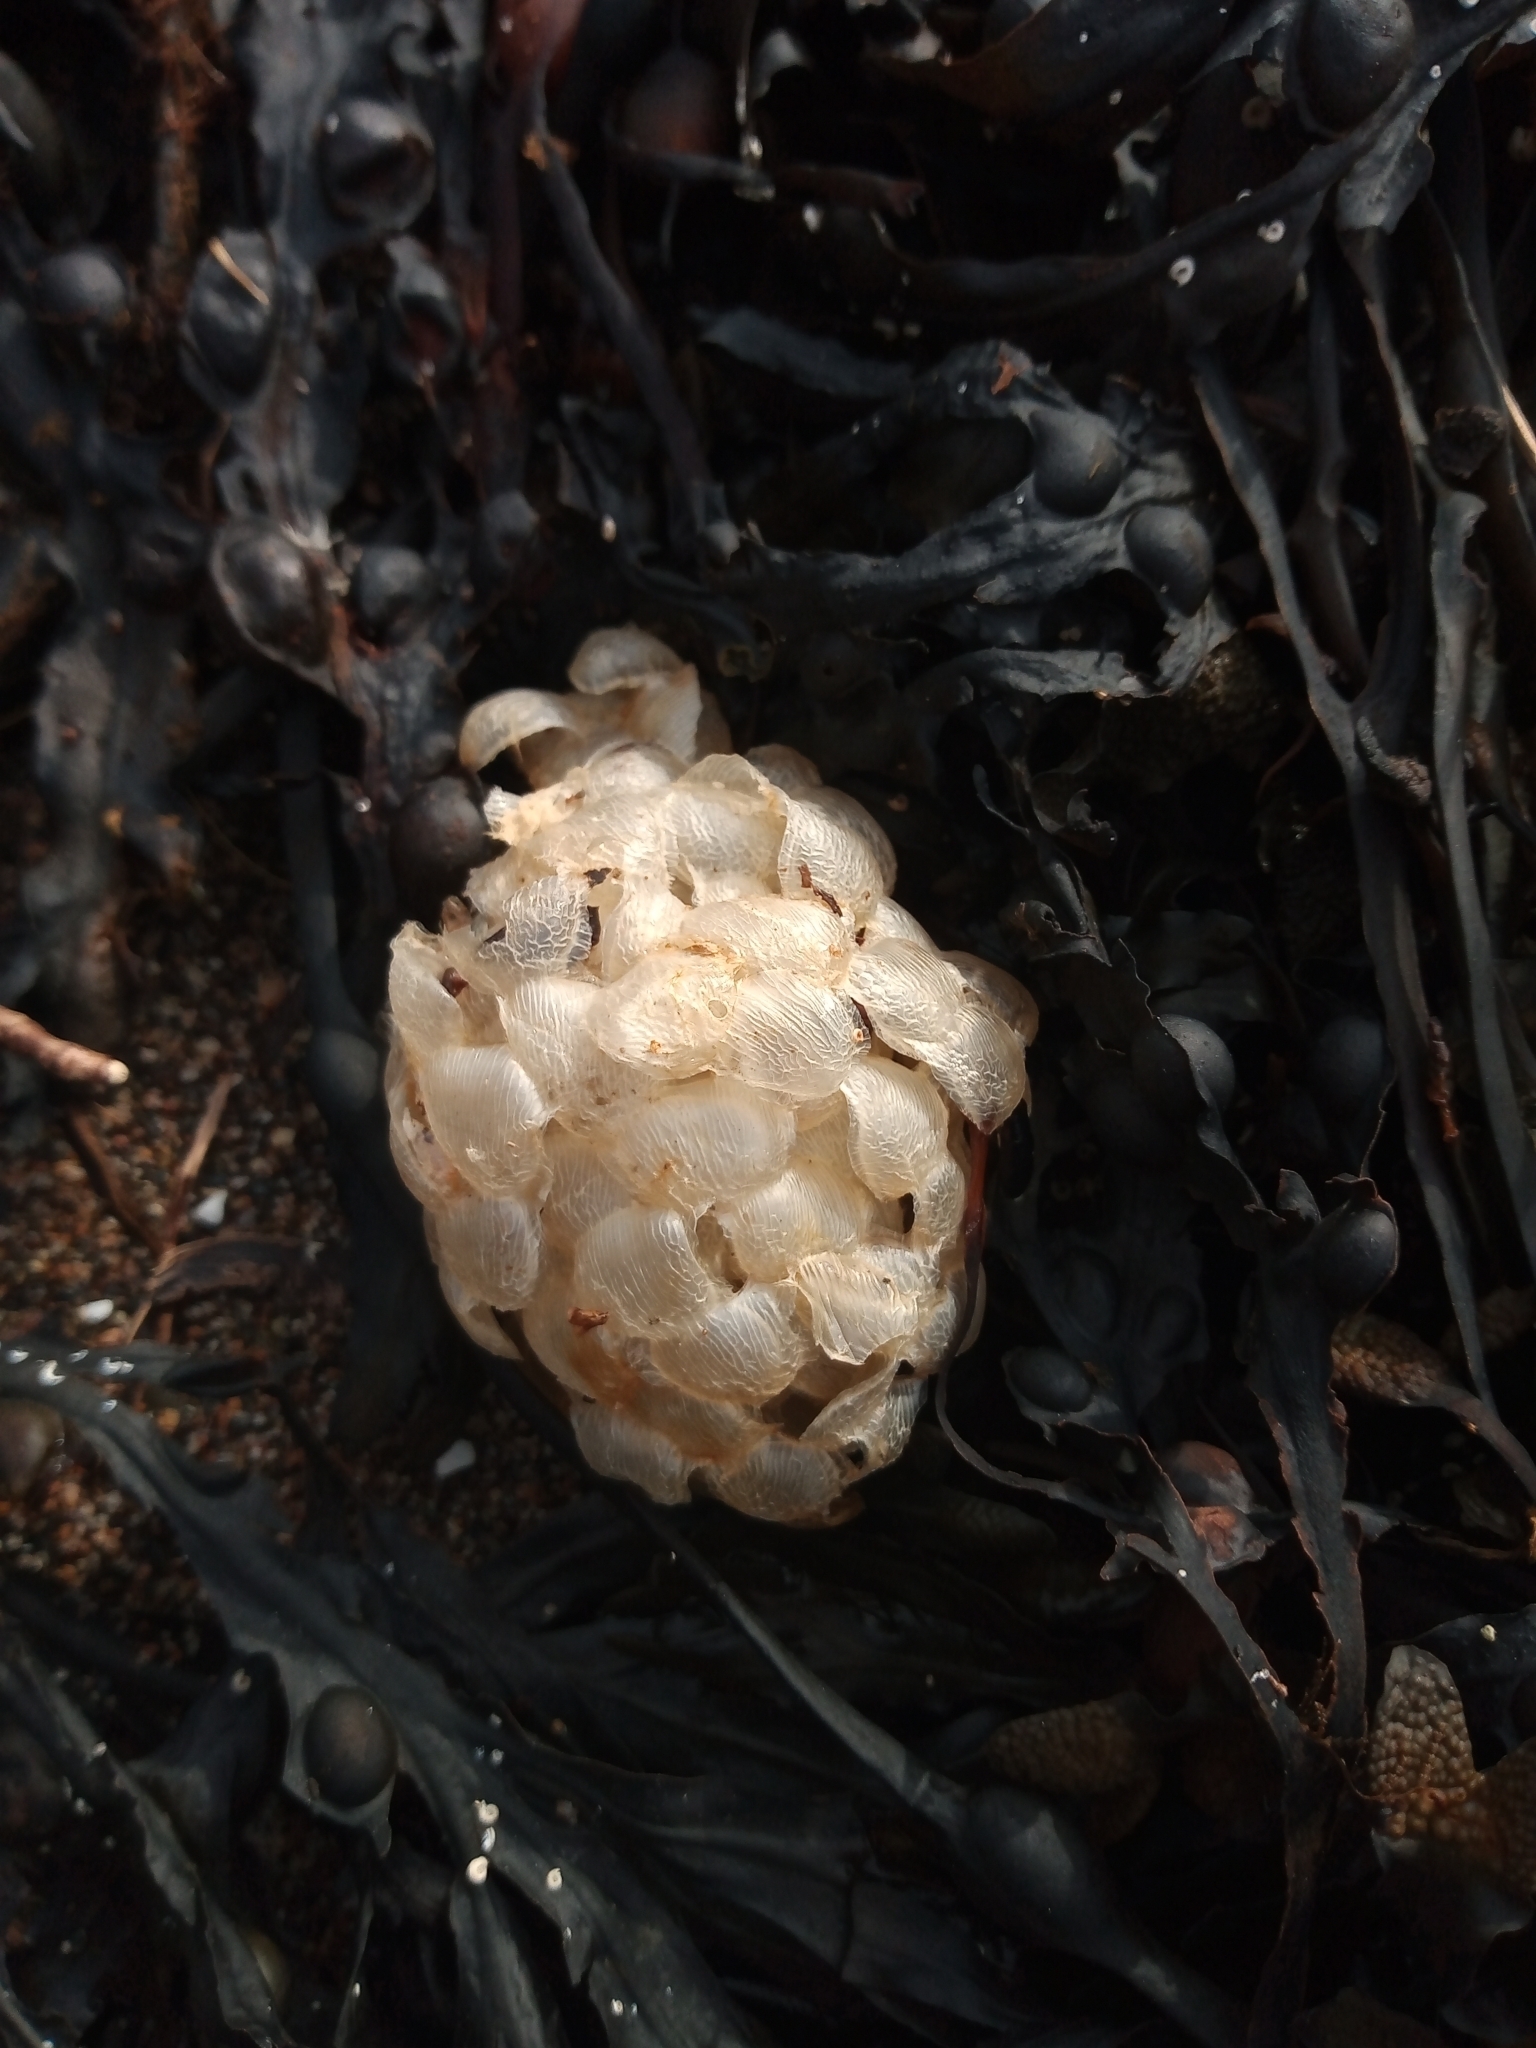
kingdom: Animalia
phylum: Mollusca
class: Gastropoda
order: Neogastropoda
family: Buccinidae
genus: Buccinum
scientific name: Buccinum undatum
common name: Common whelk
